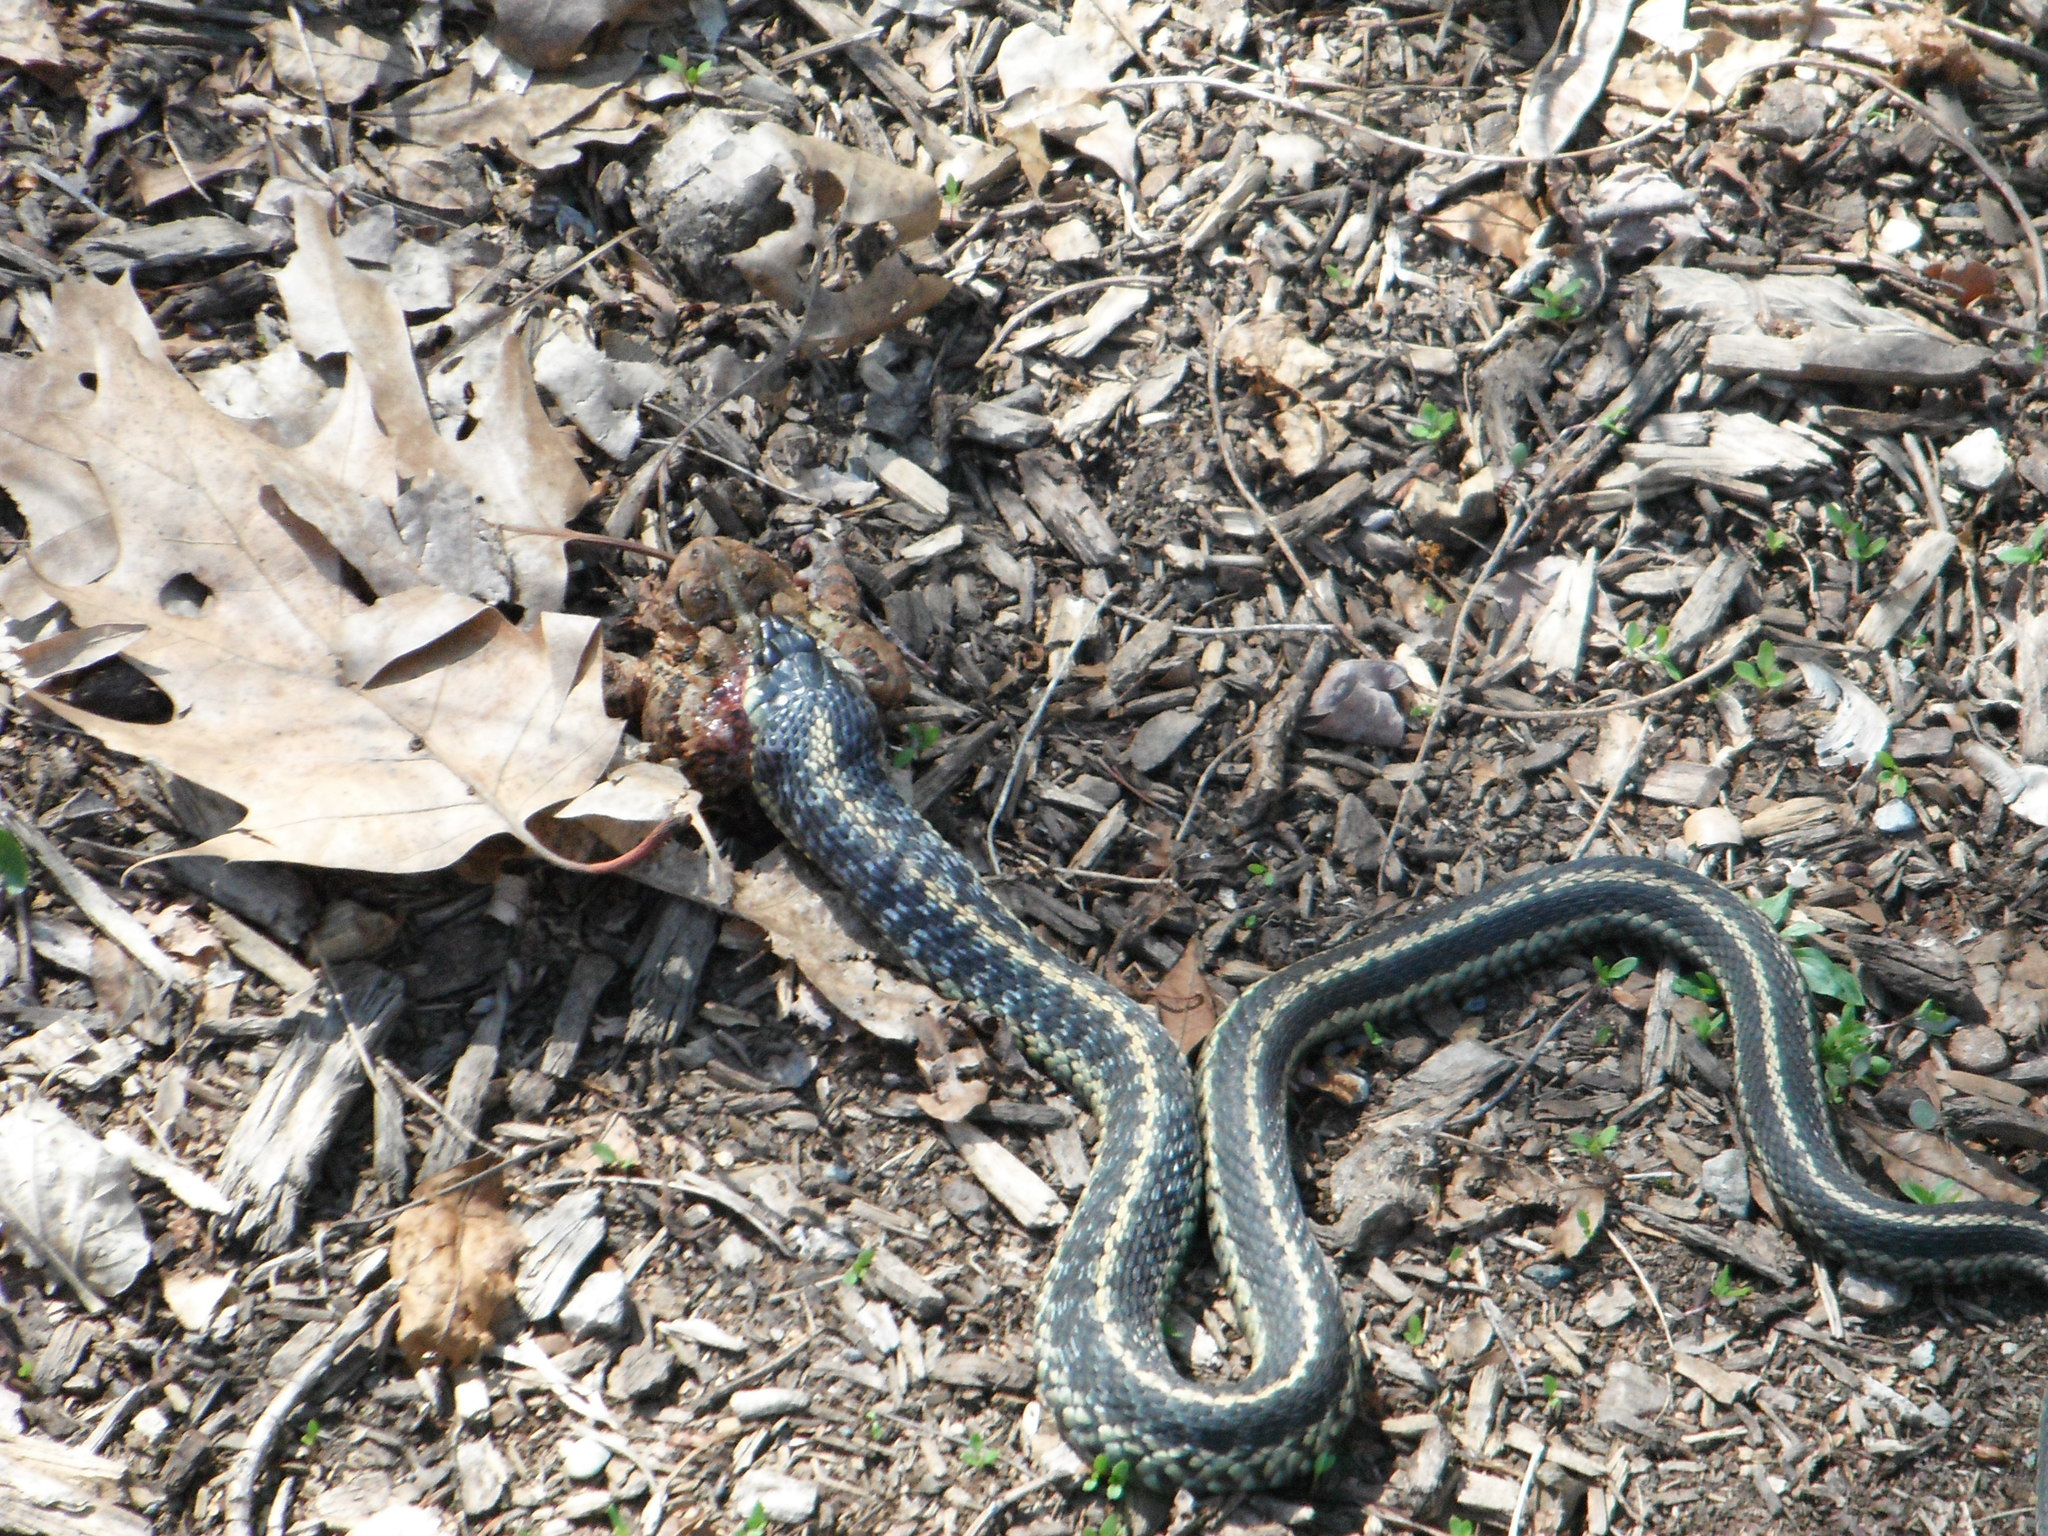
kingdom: Animalia
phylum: Chordata
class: Squamata
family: Colubridae
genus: Thamnophis
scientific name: Thamnophis sirtalis
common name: Common garter snake
